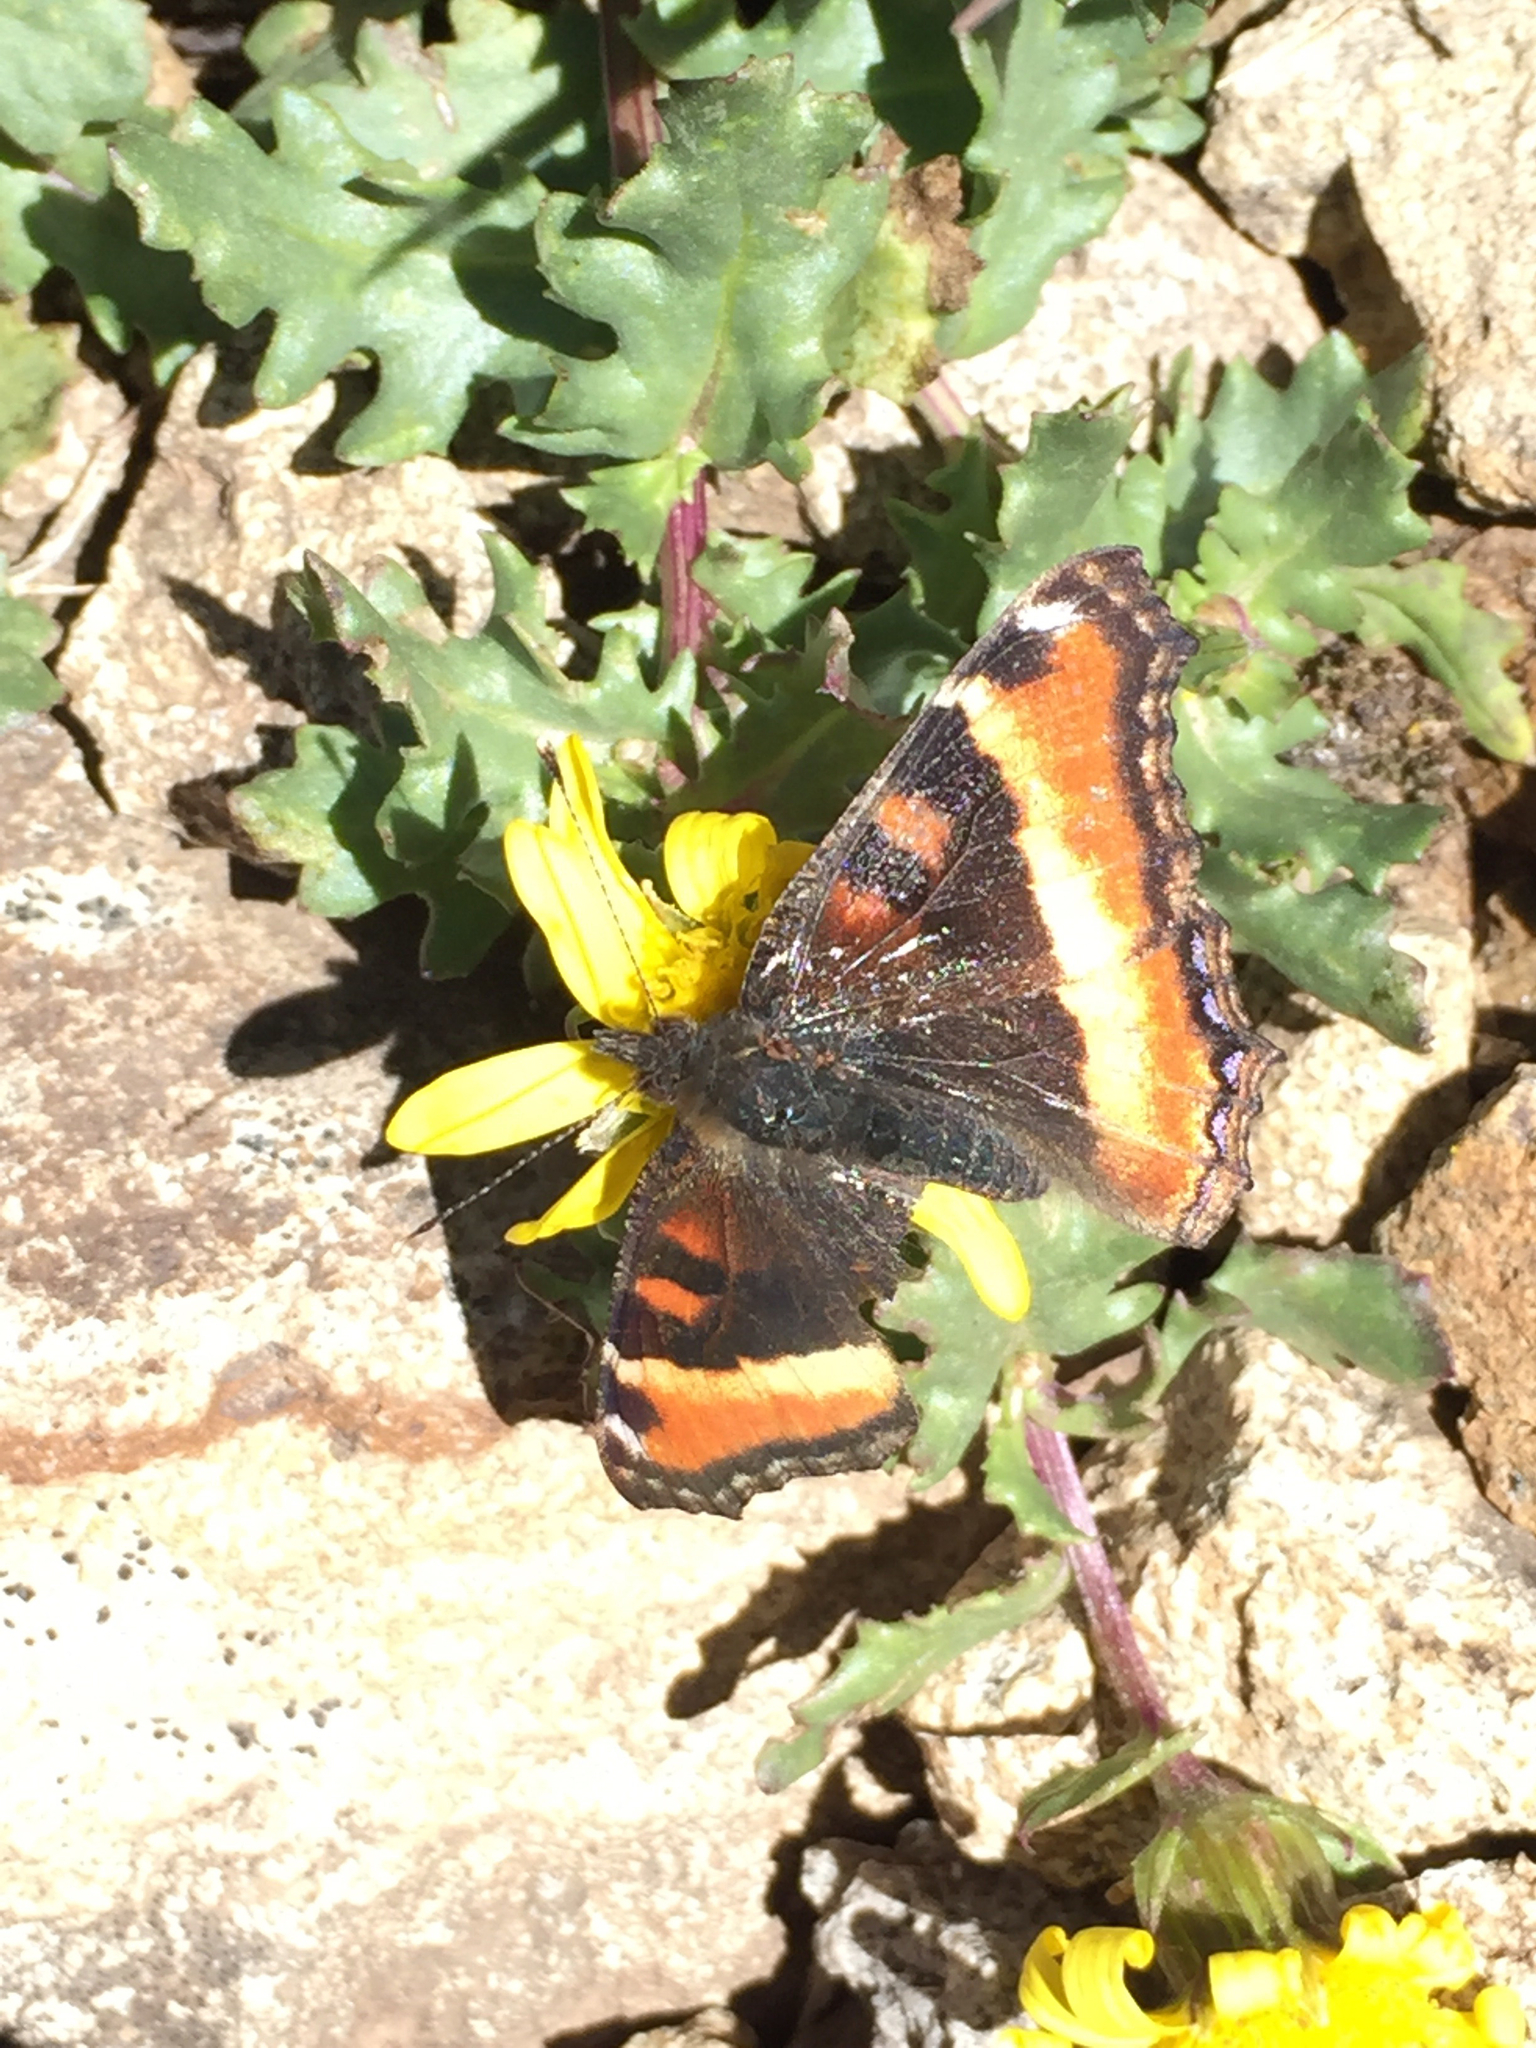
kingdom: Animalia
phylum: Arthropoda
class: Insecta
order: Lepidoptera
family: Nymphalidae
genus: Aglais
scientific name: Aglais milberti
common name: Milbert's tortoiseshell
